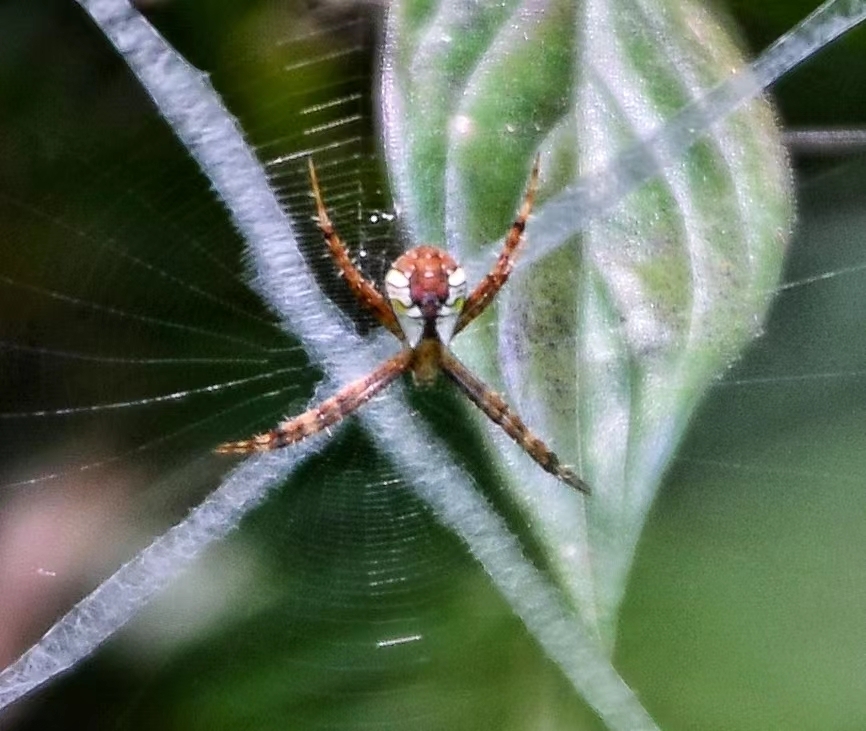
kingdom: Animalia
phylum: Arthropoda
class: Arachnida
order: Araneae
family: Araneidae
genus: Argiope
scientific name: Argiope perforata
